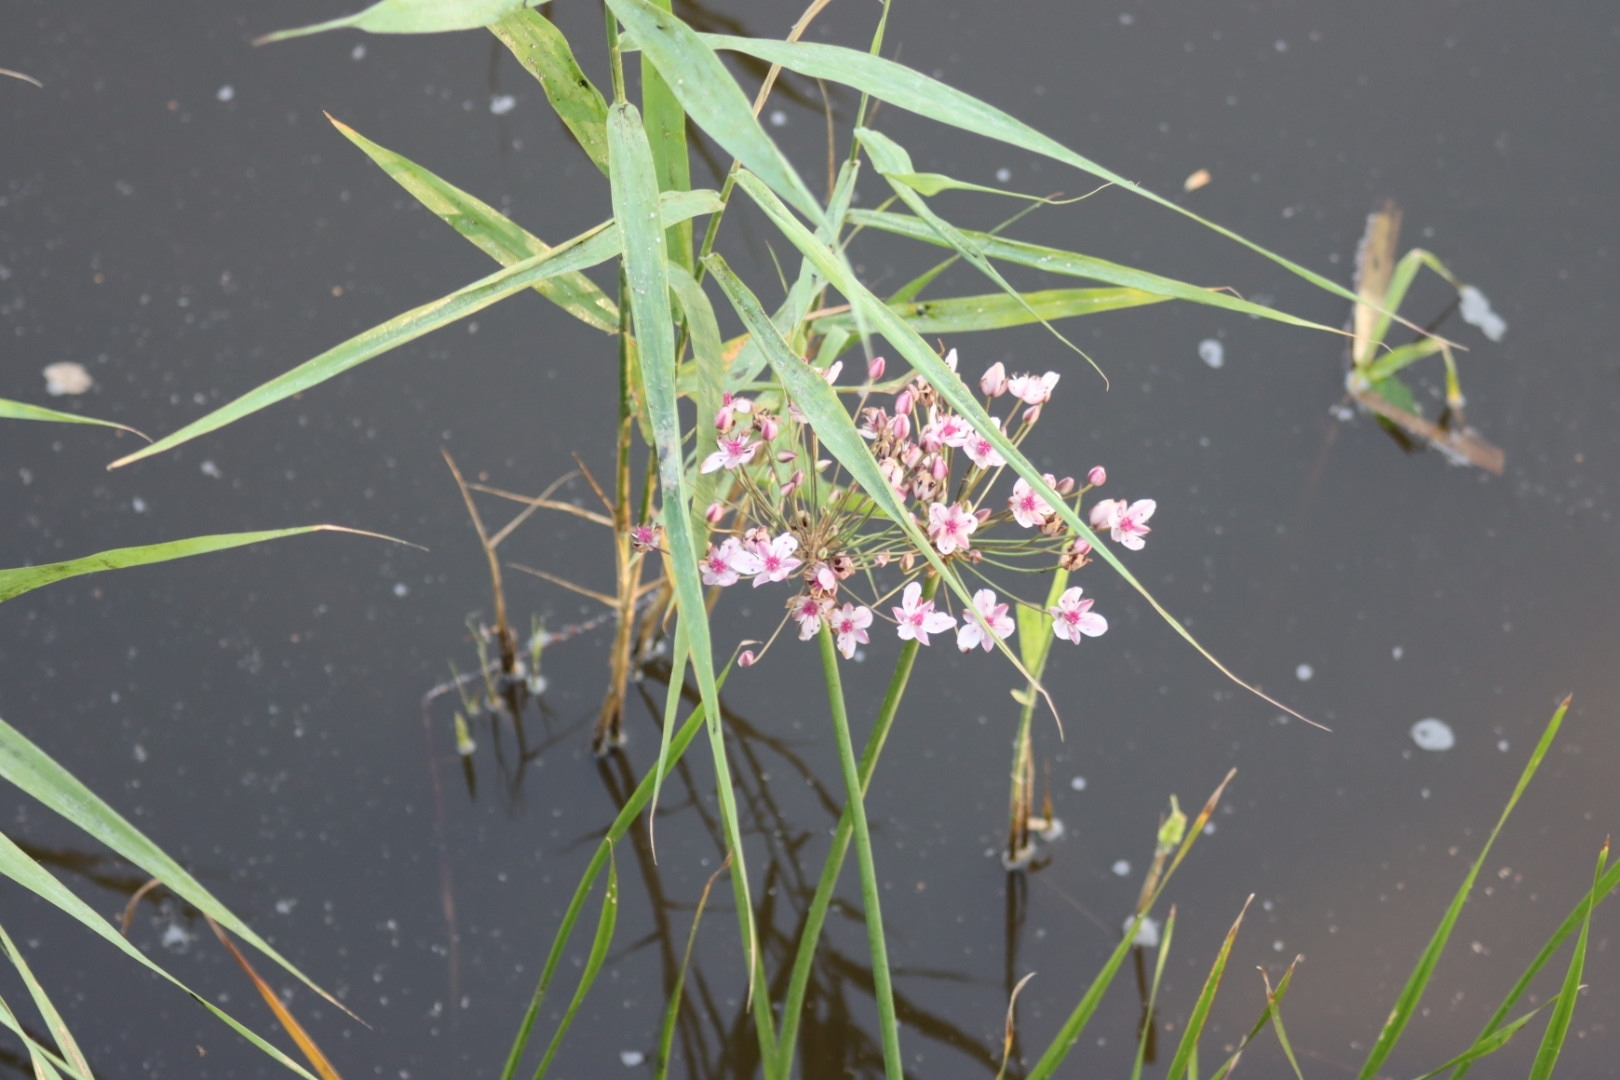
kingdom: Plantae
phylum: Tracheophyta
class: Liliopsida
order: Alismatales
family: Butomaceae
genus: Butomus
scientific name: Butomus umbellatus
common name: Flowering-rush
